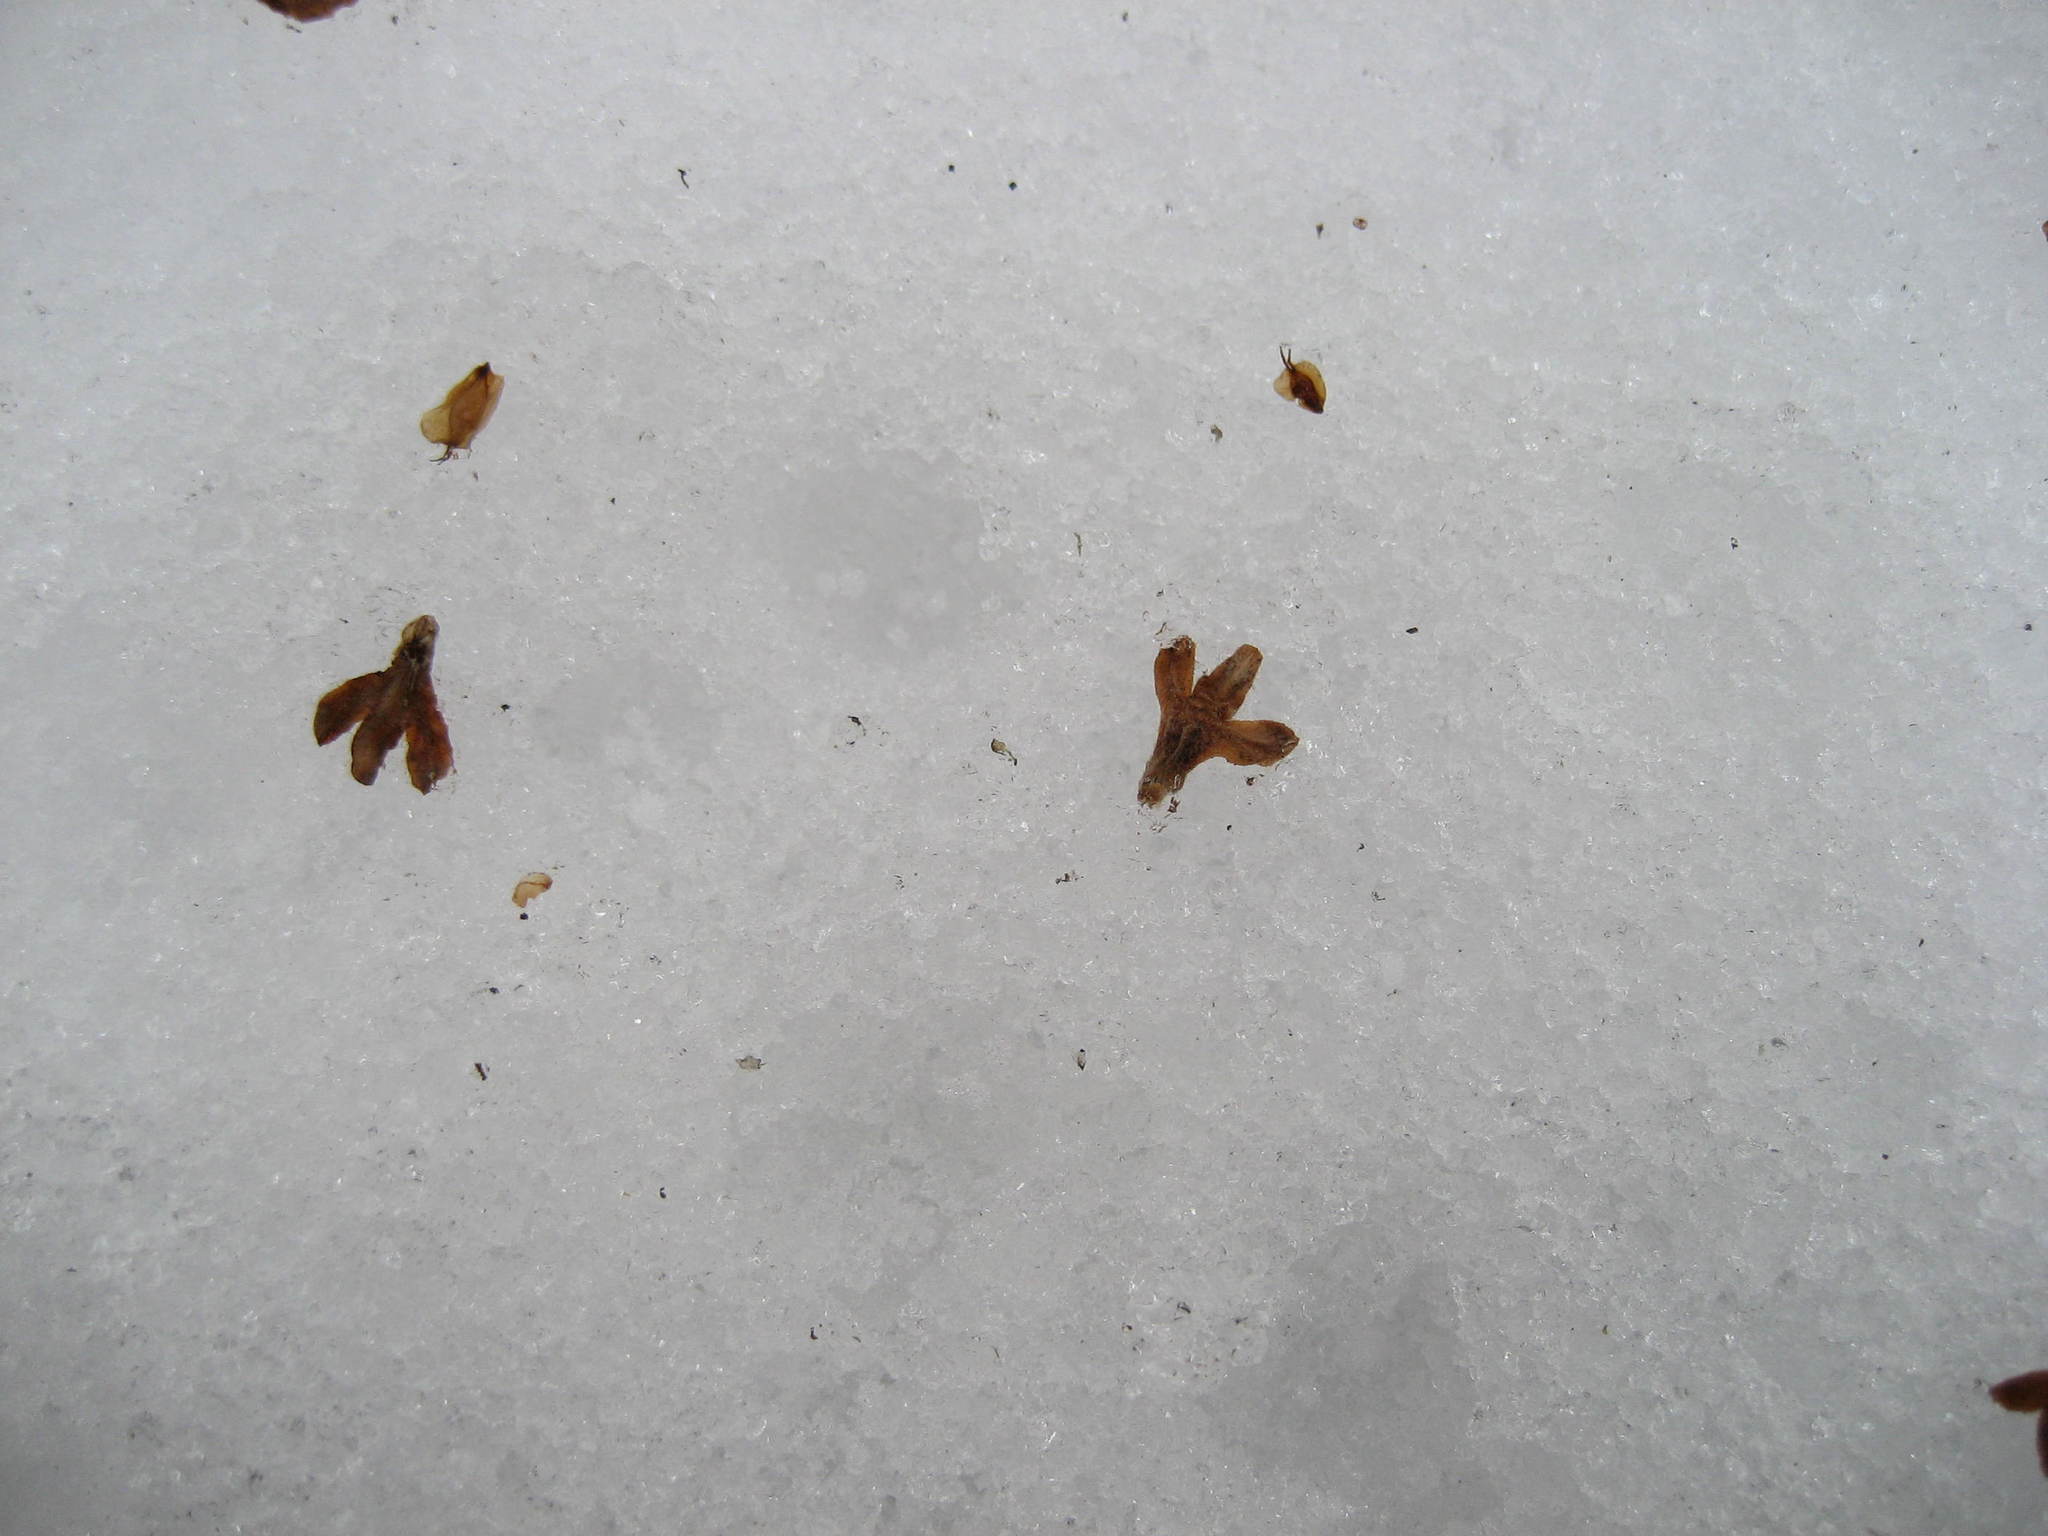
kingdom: Plantae
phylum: Tracheophyta
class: Magnoliopsida
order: Fagales
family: Betulaceae
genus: Betula
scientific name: Betula alleghaniensis
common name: Yellow birch
